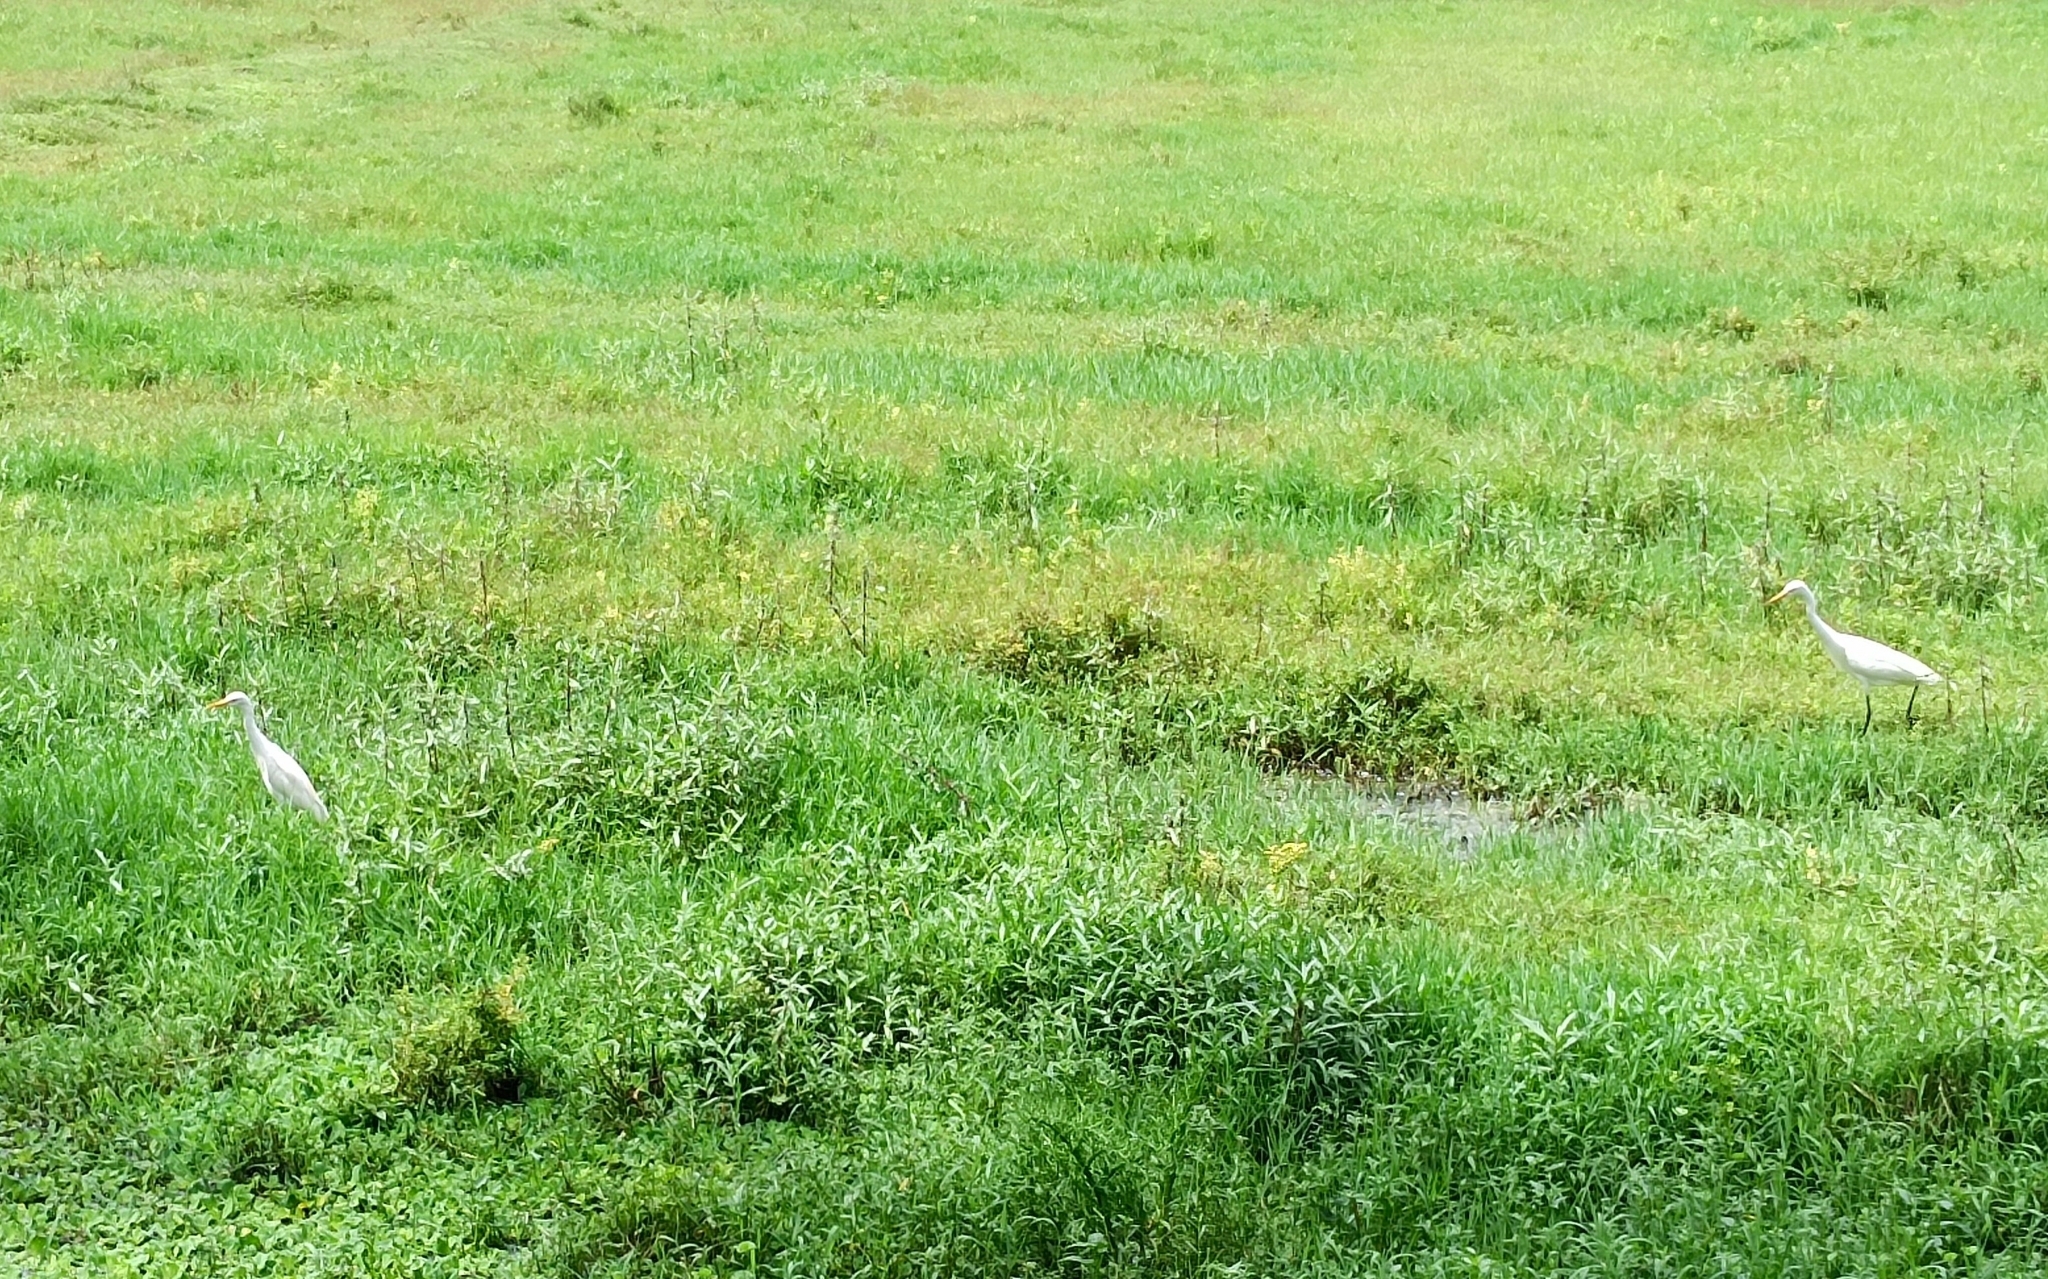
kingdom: Animalia
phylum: Chordata
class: Aves
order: Pelecaniformes
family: Ardeidae
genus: Bubulcus
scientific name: Bubulcus coromandus
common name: Eastern cattle egret
